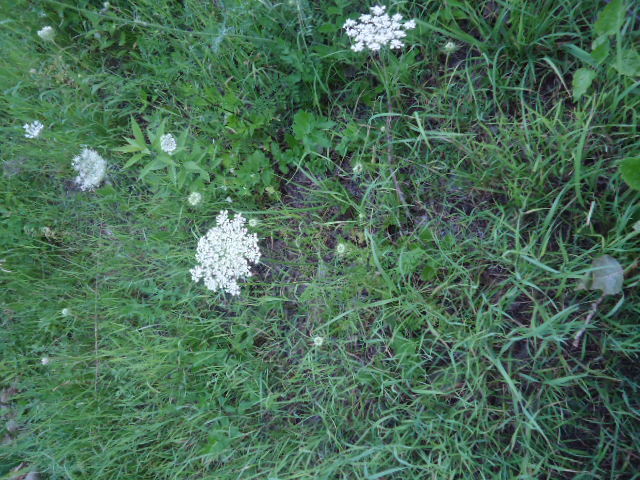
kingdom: Plantae
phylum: Tracheophyta
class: Magnoliopsida
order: Apiales
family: Apiaceae
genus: Daucus
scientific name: Daucus carota
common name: Wild carrot
